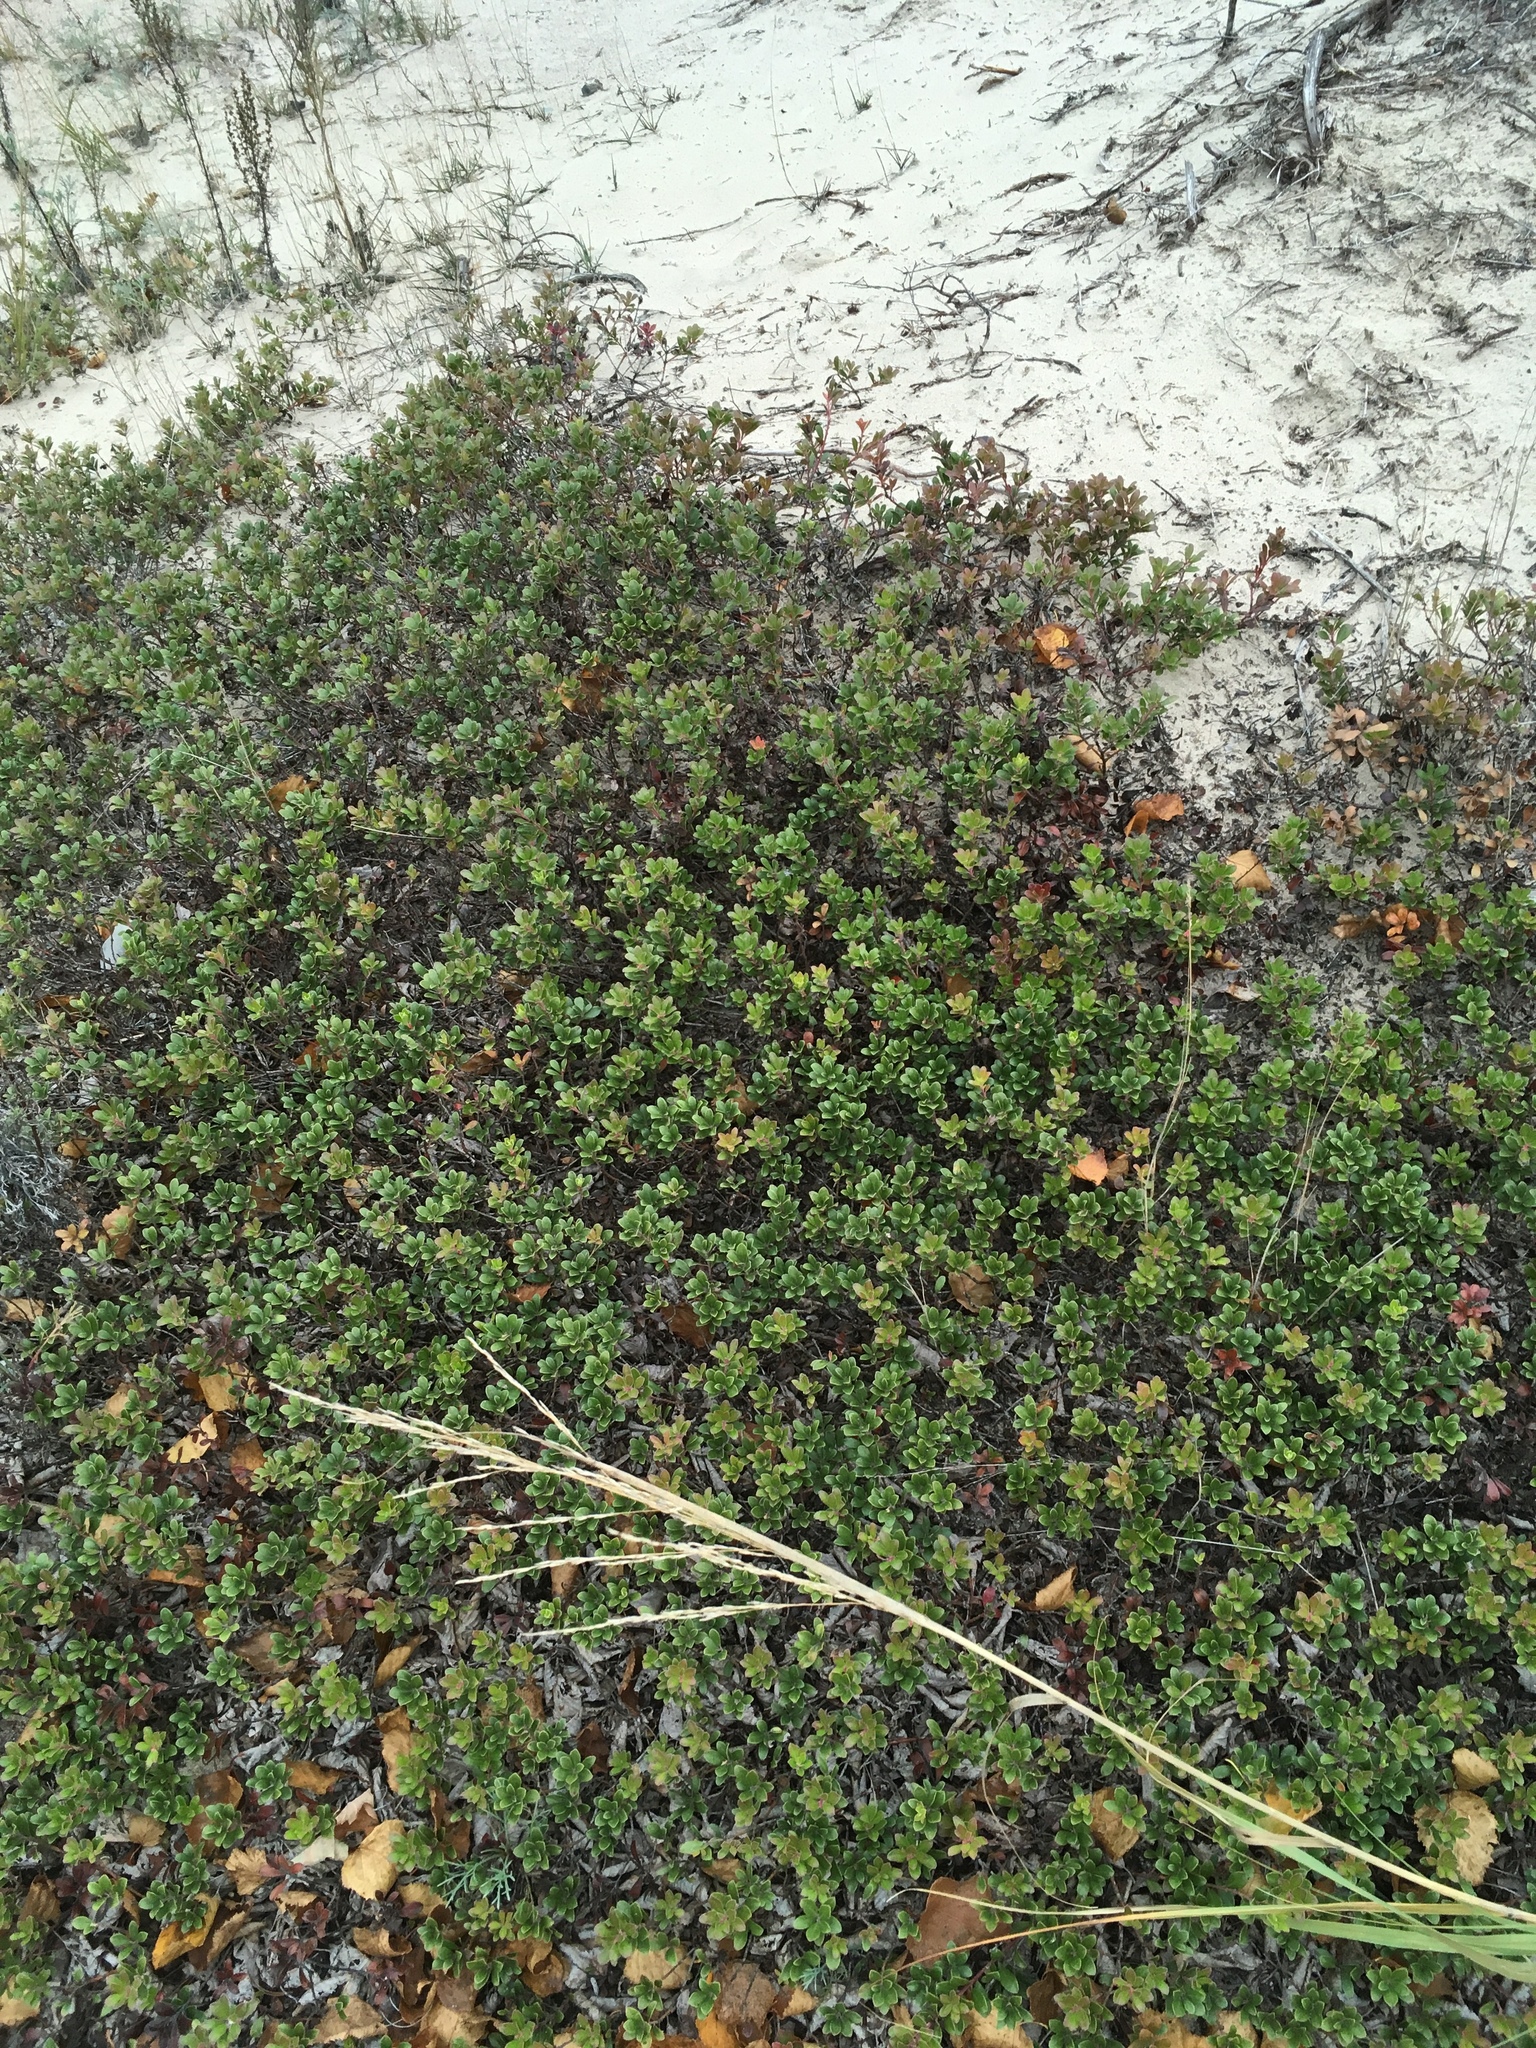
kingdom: Plantae
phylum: Tracheophyta
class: Magnoliopsida
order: Ericales
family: Ericaceae
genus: Arctostaphylos
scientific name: Arctostaphylos uva-ursi
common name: Bearberry
